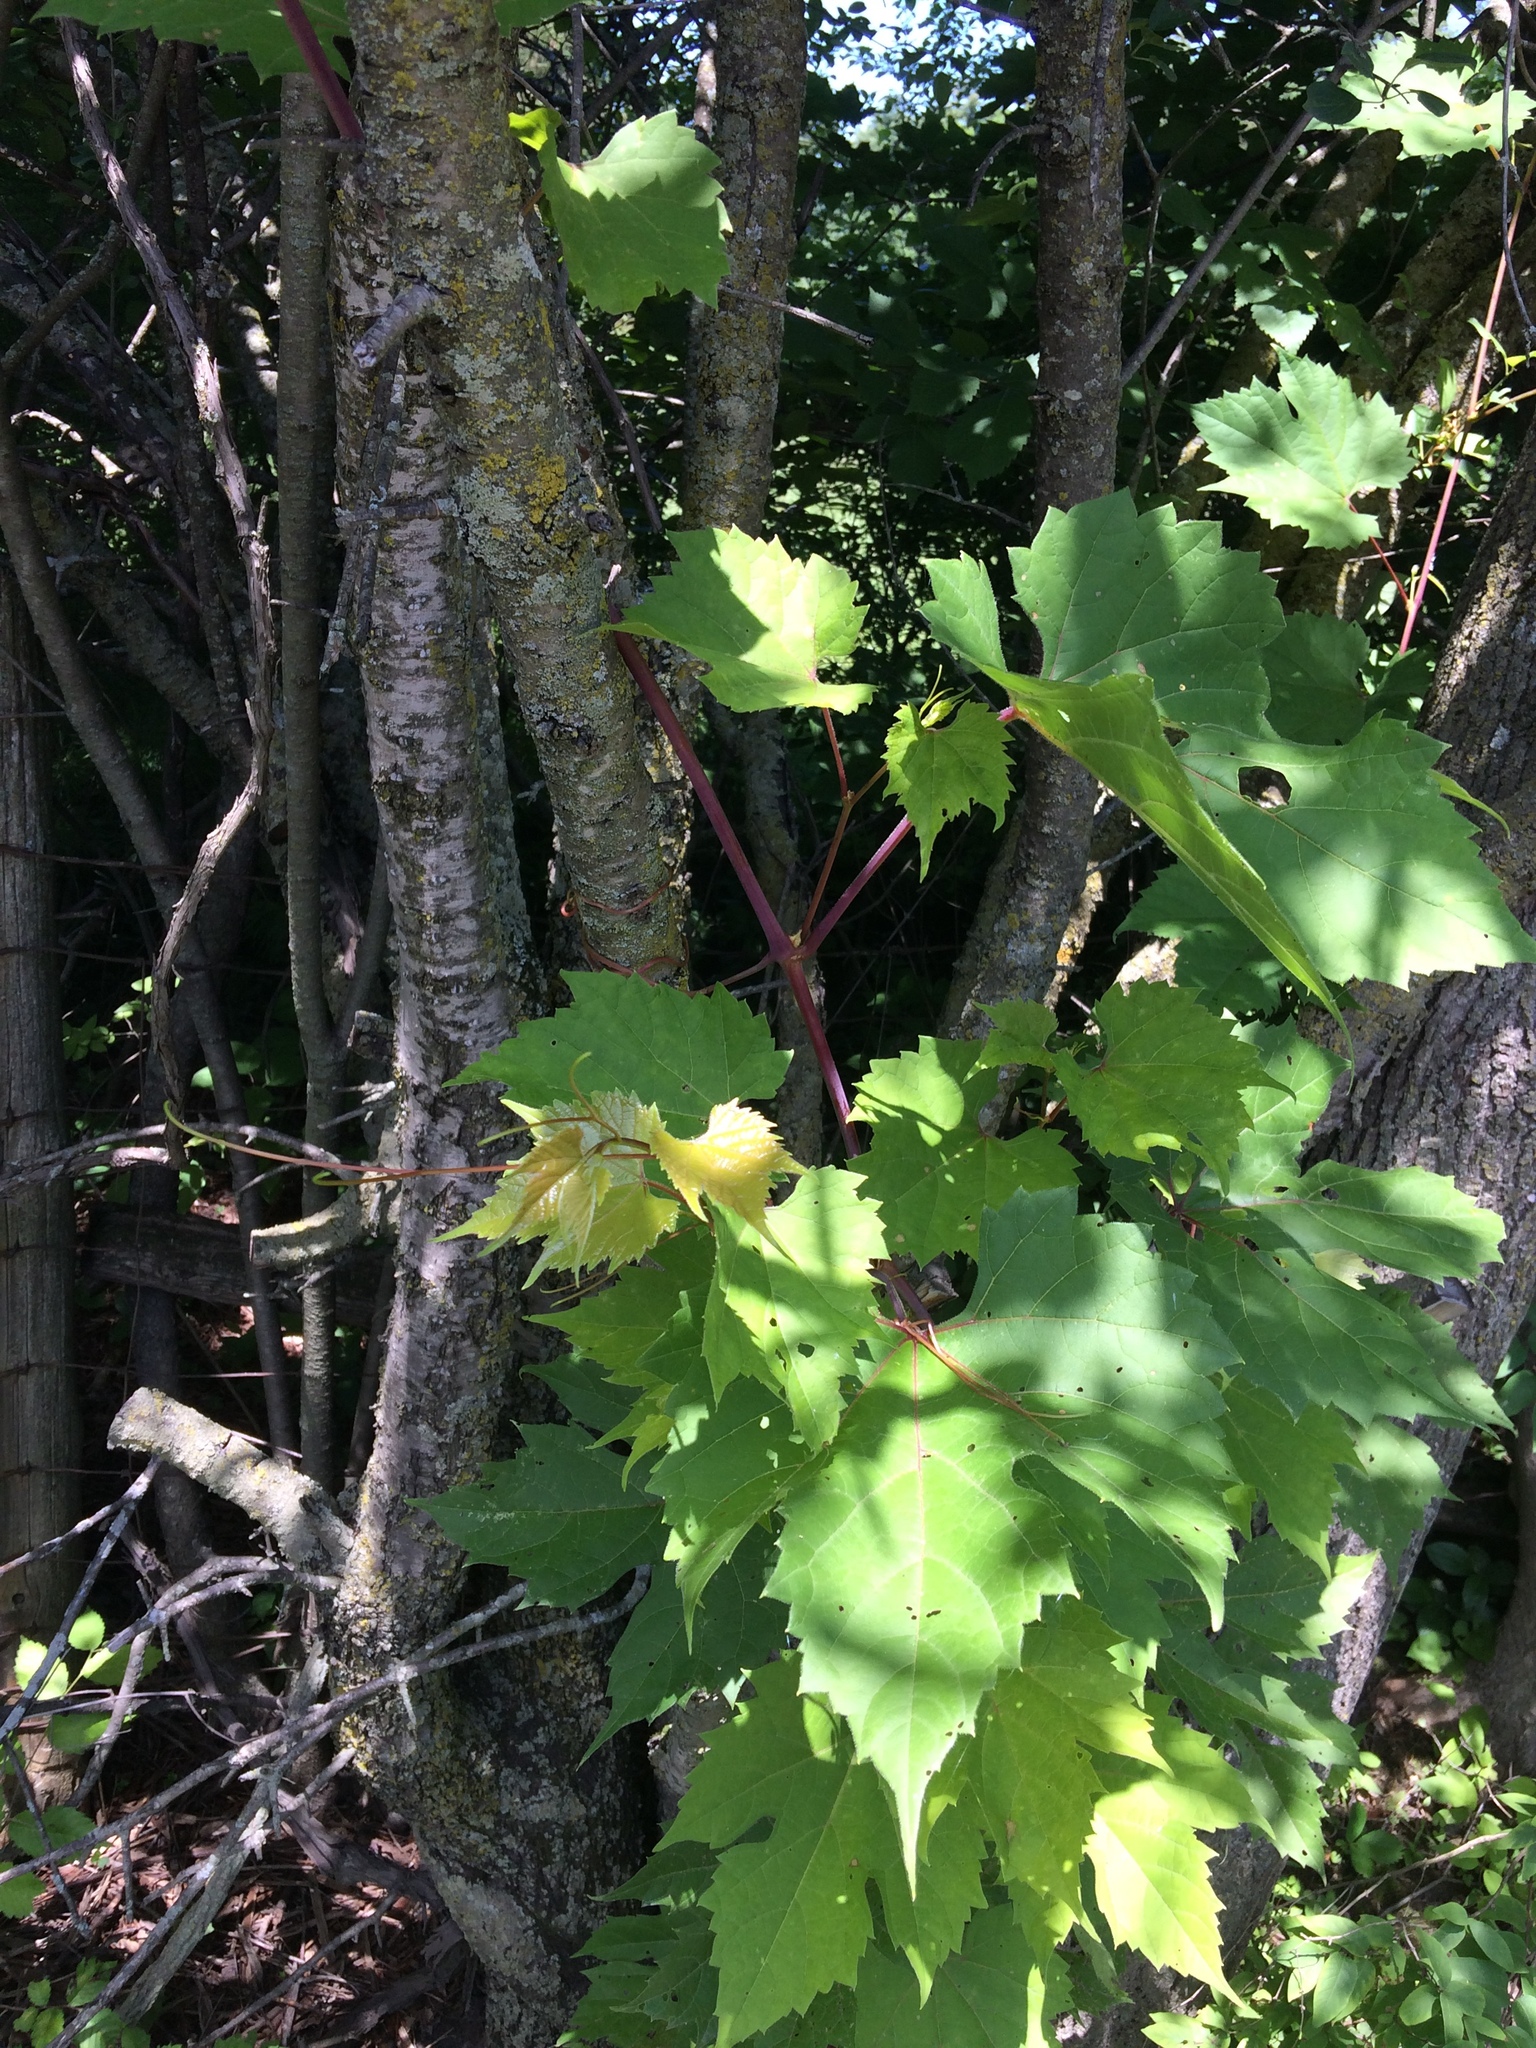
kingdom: Plantae
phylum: Tracheophyta
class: Magnoliopsida
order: Vitales
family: Vitaceae
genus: Vitis
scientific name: Vitis riparia
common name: Frost grape
